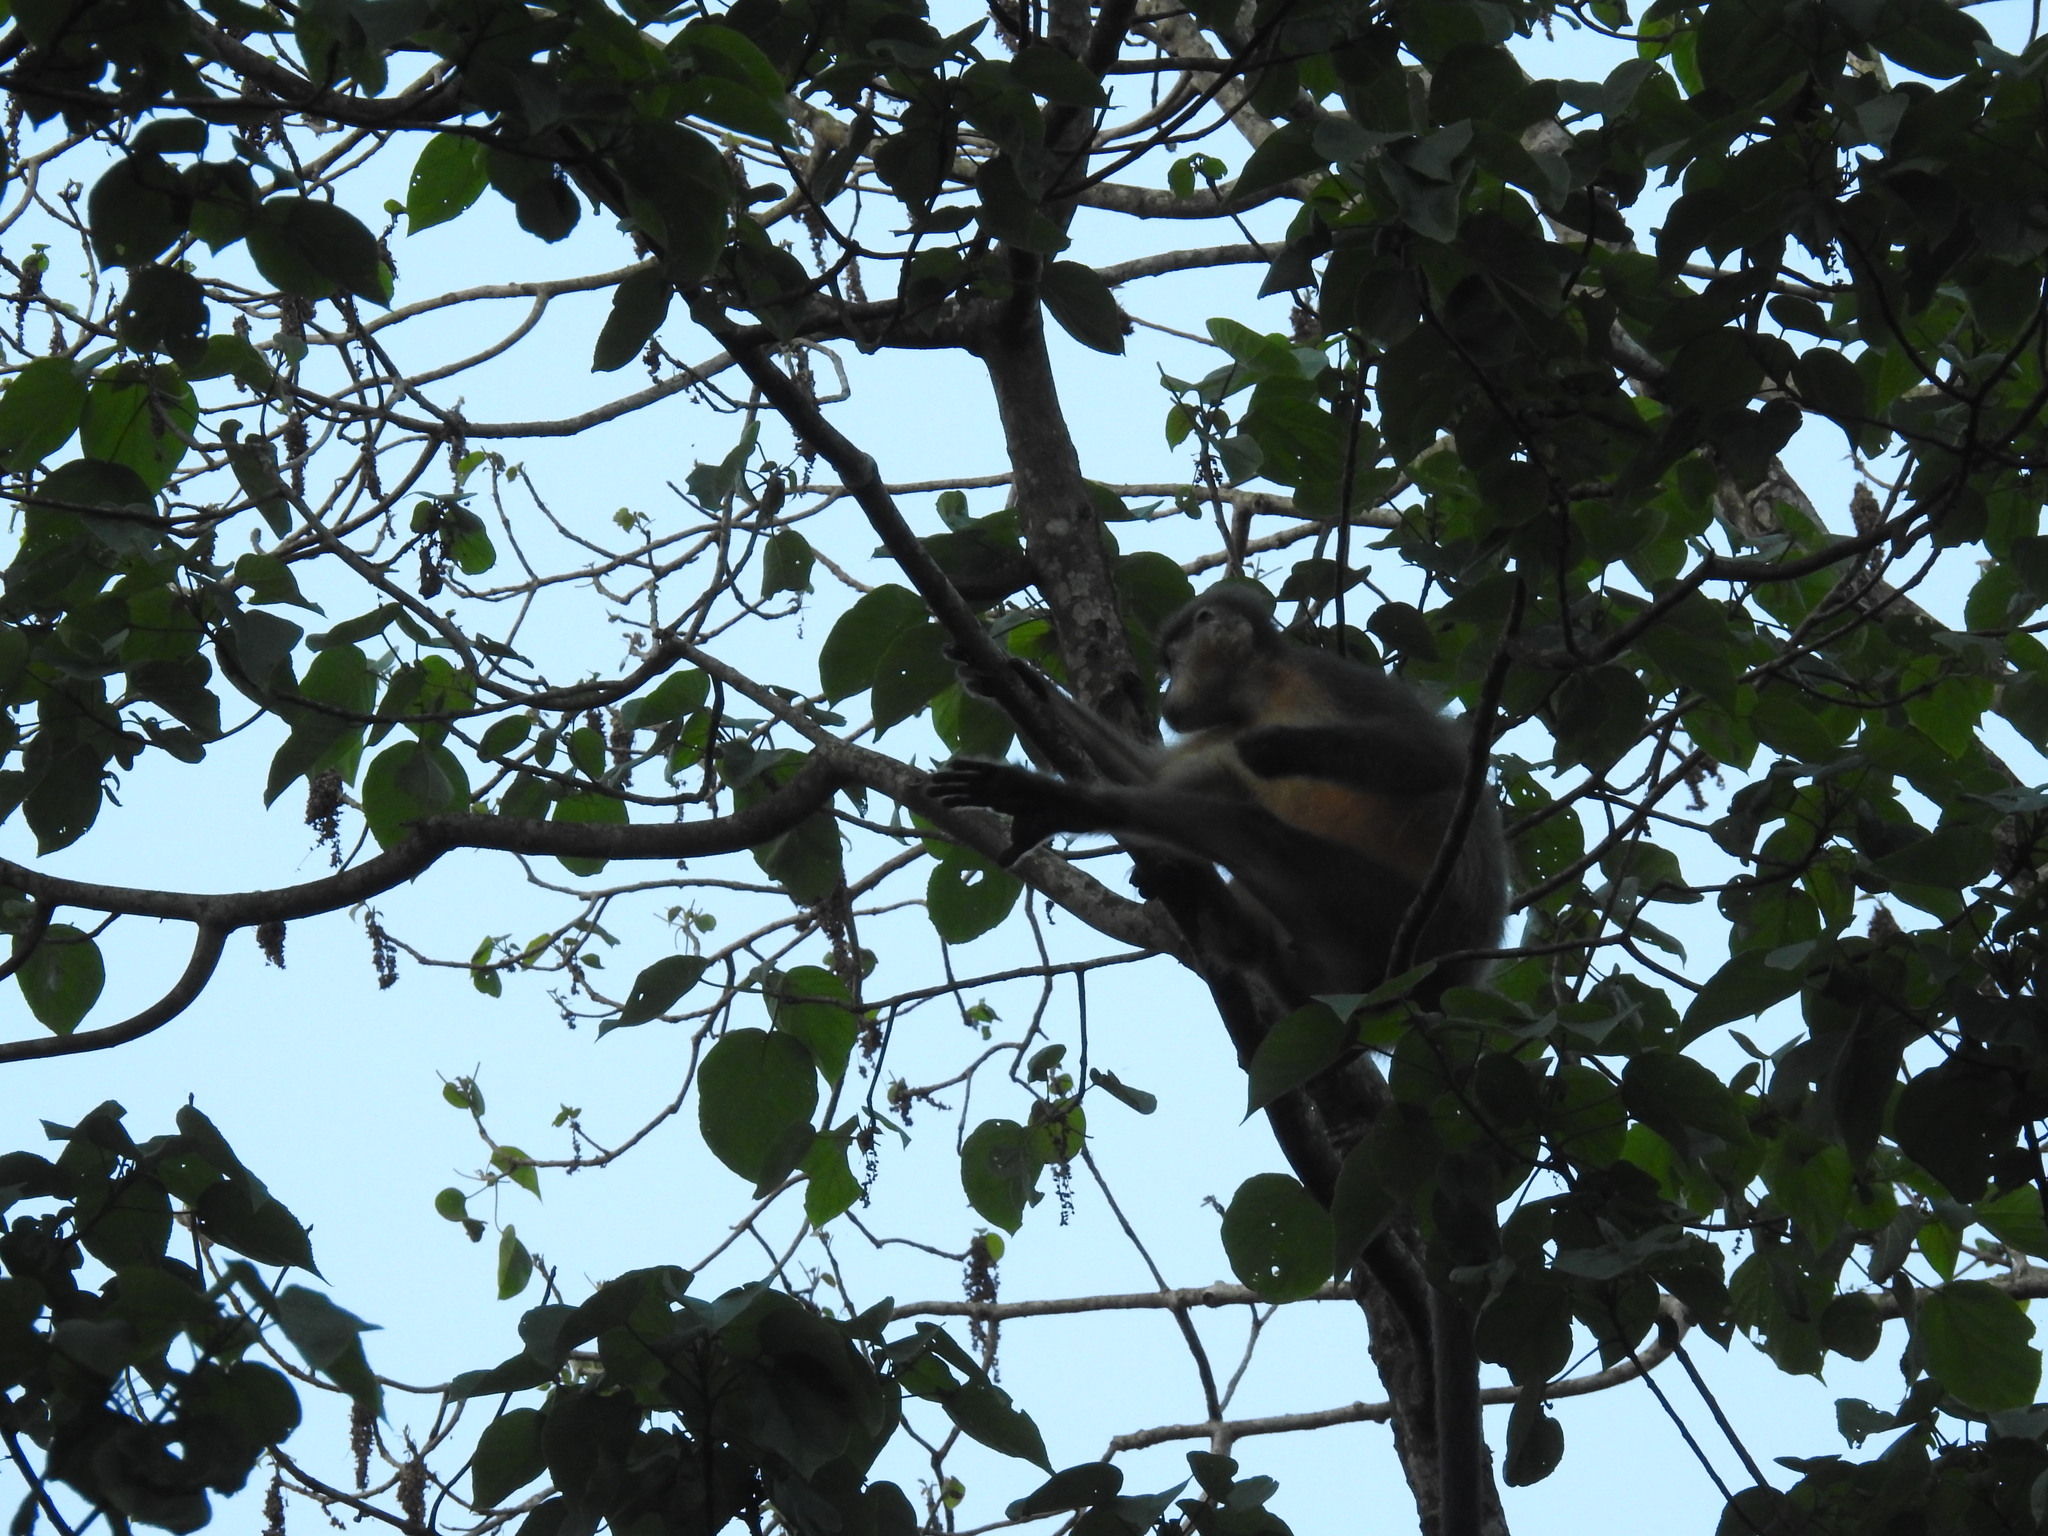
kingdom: Animalia
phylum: Chordata
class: Mammalia
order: Primates
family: Cercopithecidae
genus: Trachypithecus
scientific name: Trachypithecus pileatus
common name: Capped langur
